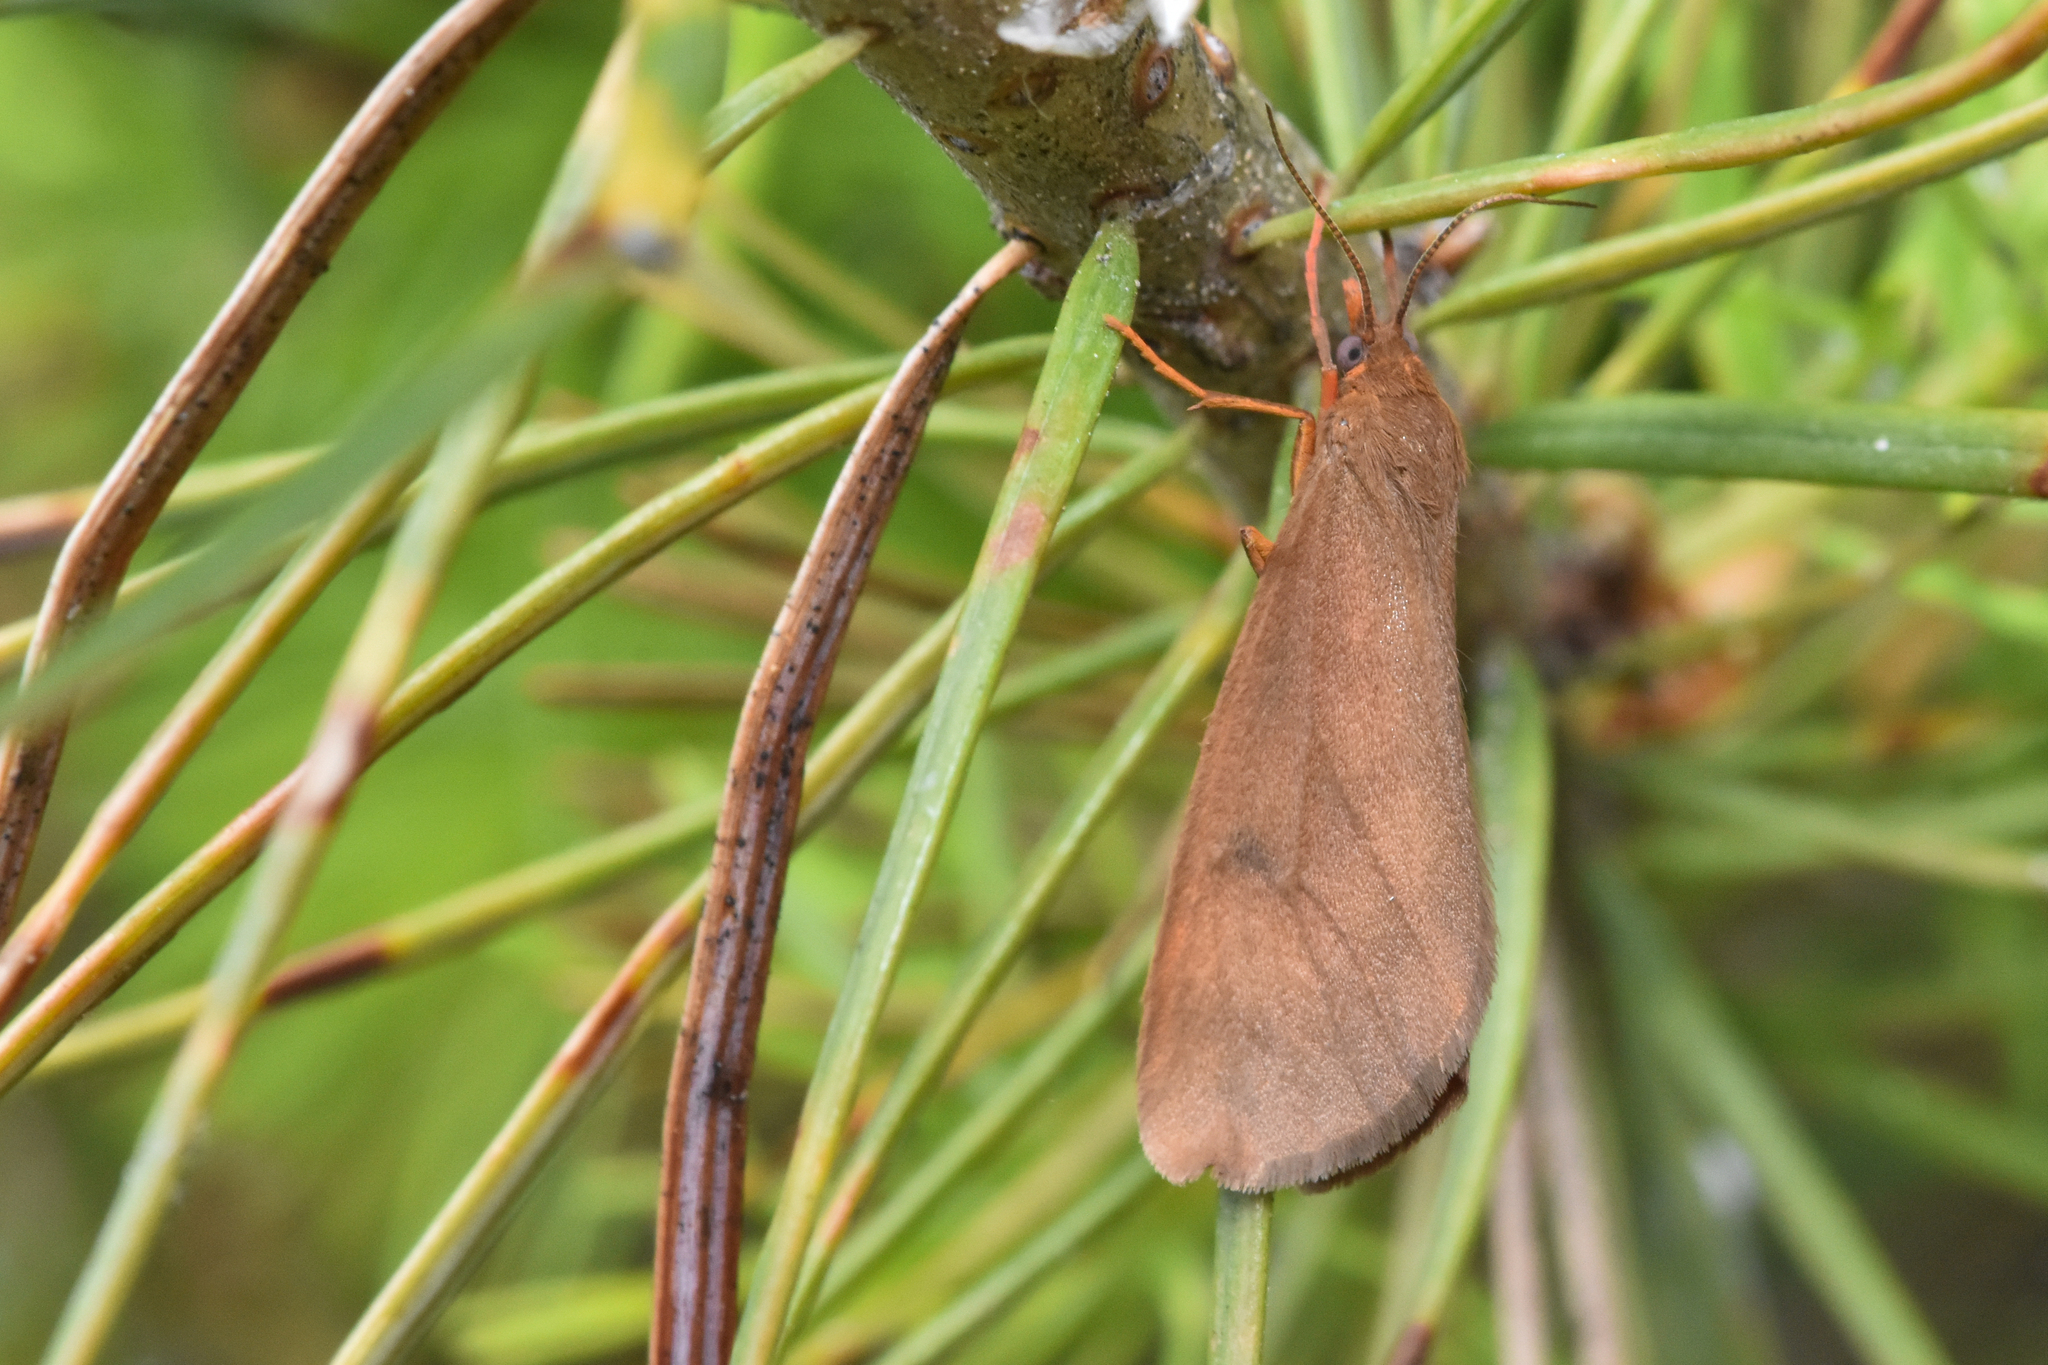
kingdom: Animalia
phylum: Arthropoda
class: Insecta
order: Lepidoptera
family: Erebidae
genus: Virbia
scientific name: Virbia ferruginosa
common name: Rusty virbia moth
